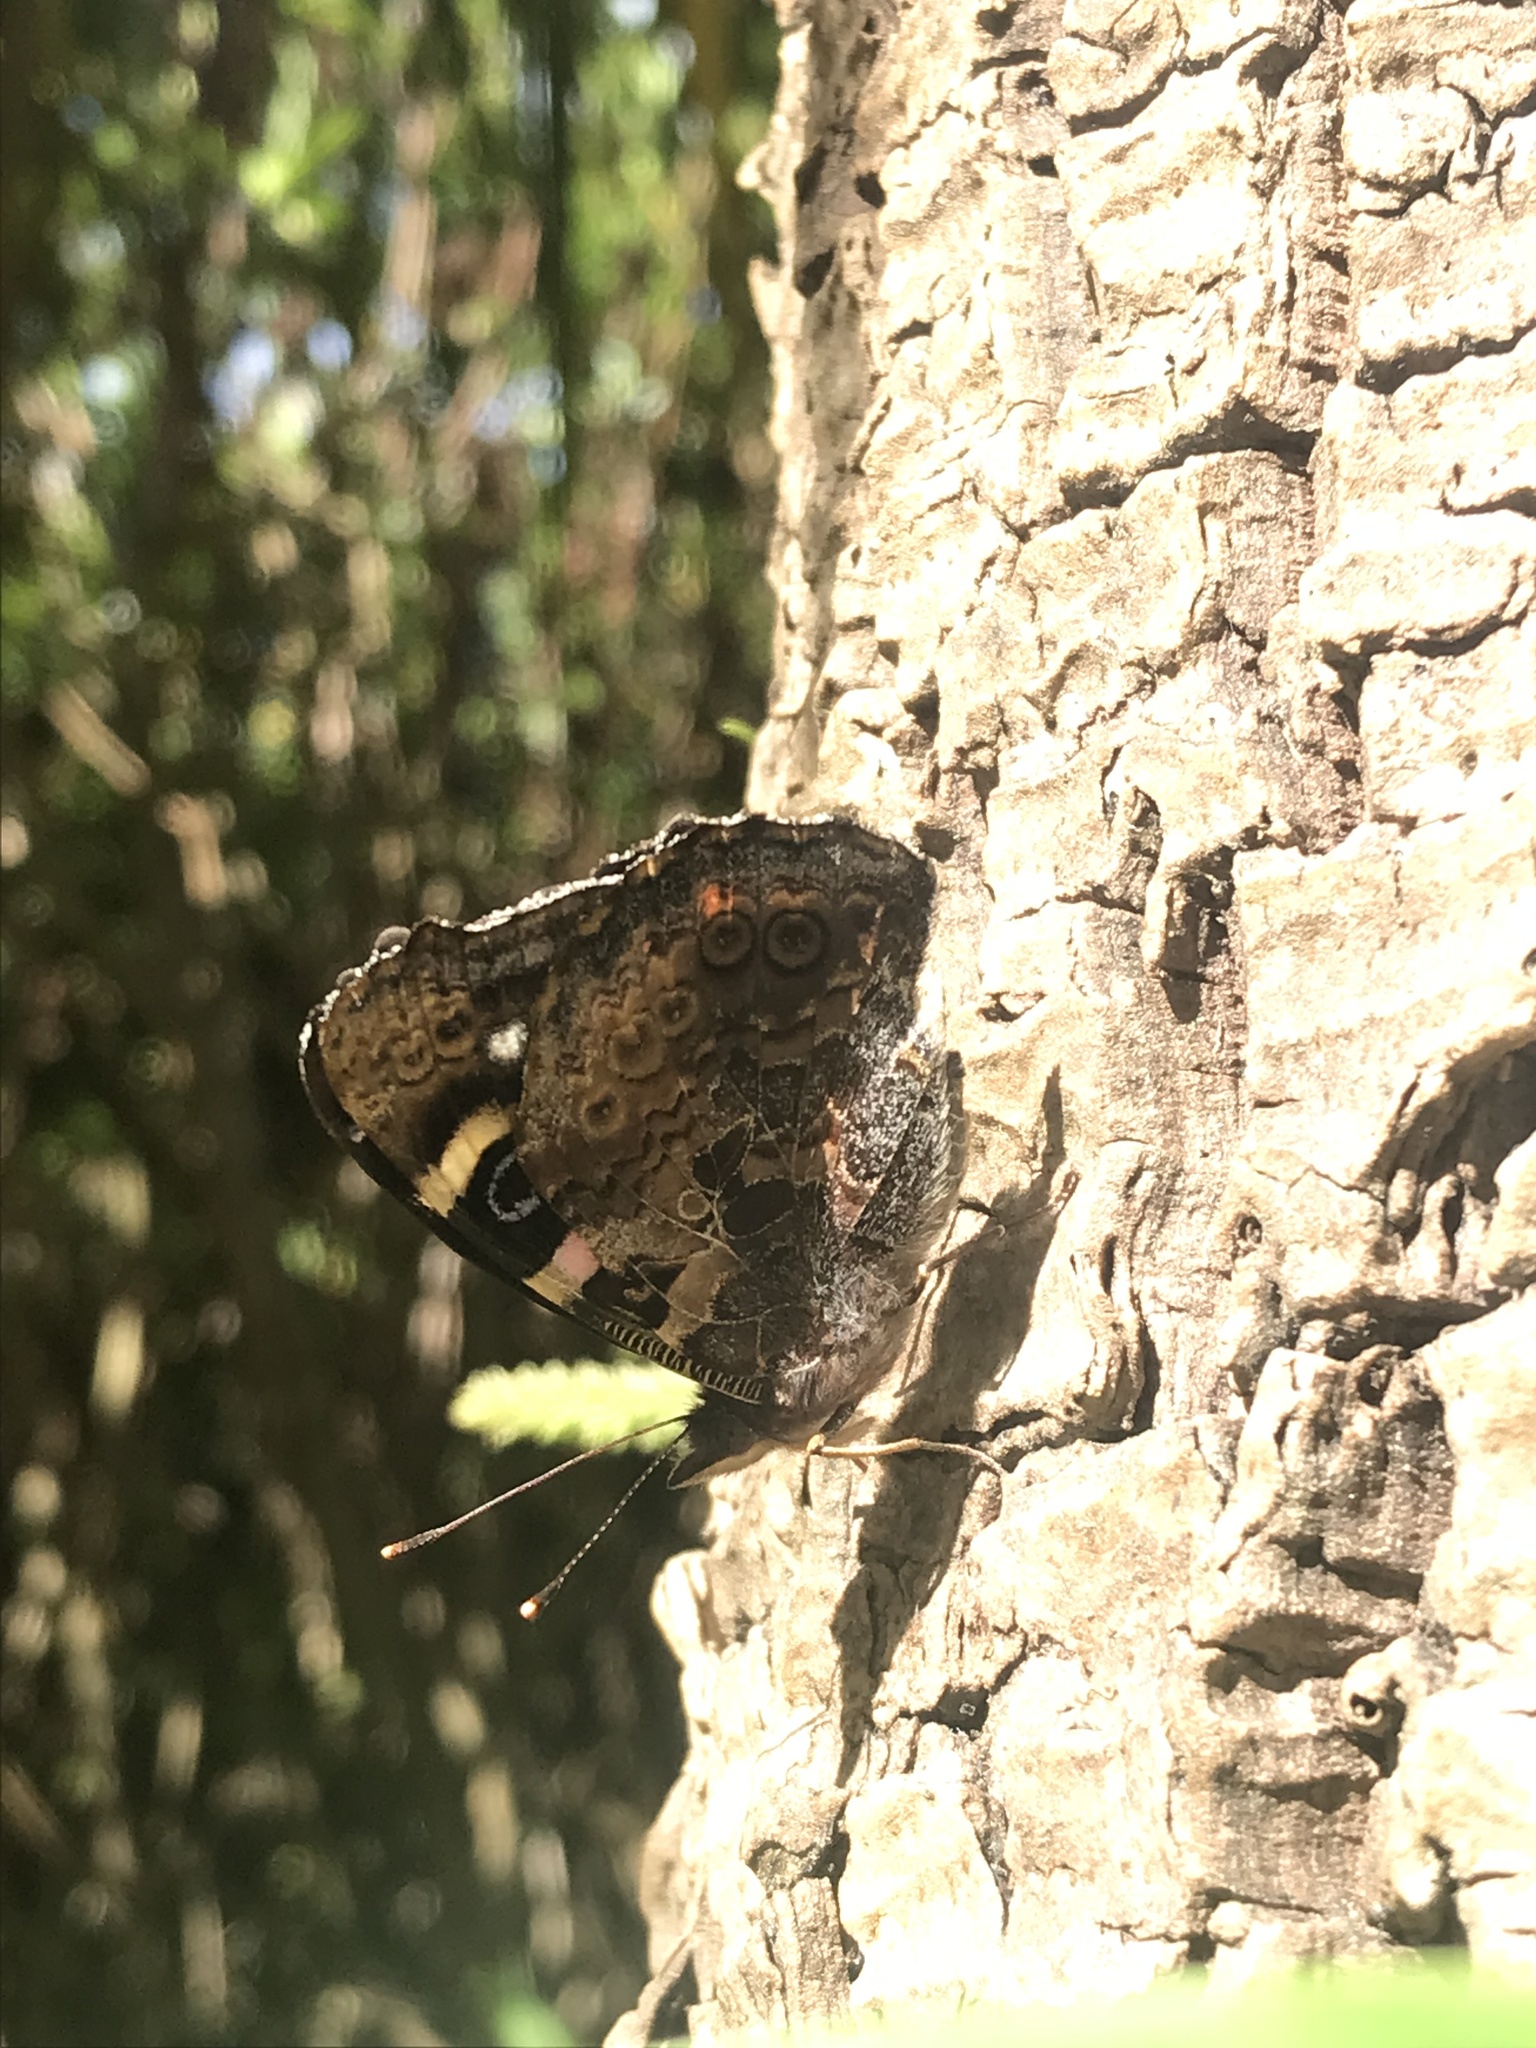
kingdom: Animalia
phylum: Arthropoda
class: Insecta
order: Lepidoptera
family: Nymphalidae
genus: Vanessa
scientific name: Vanessa gonerilla
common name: New zealand red admiral
